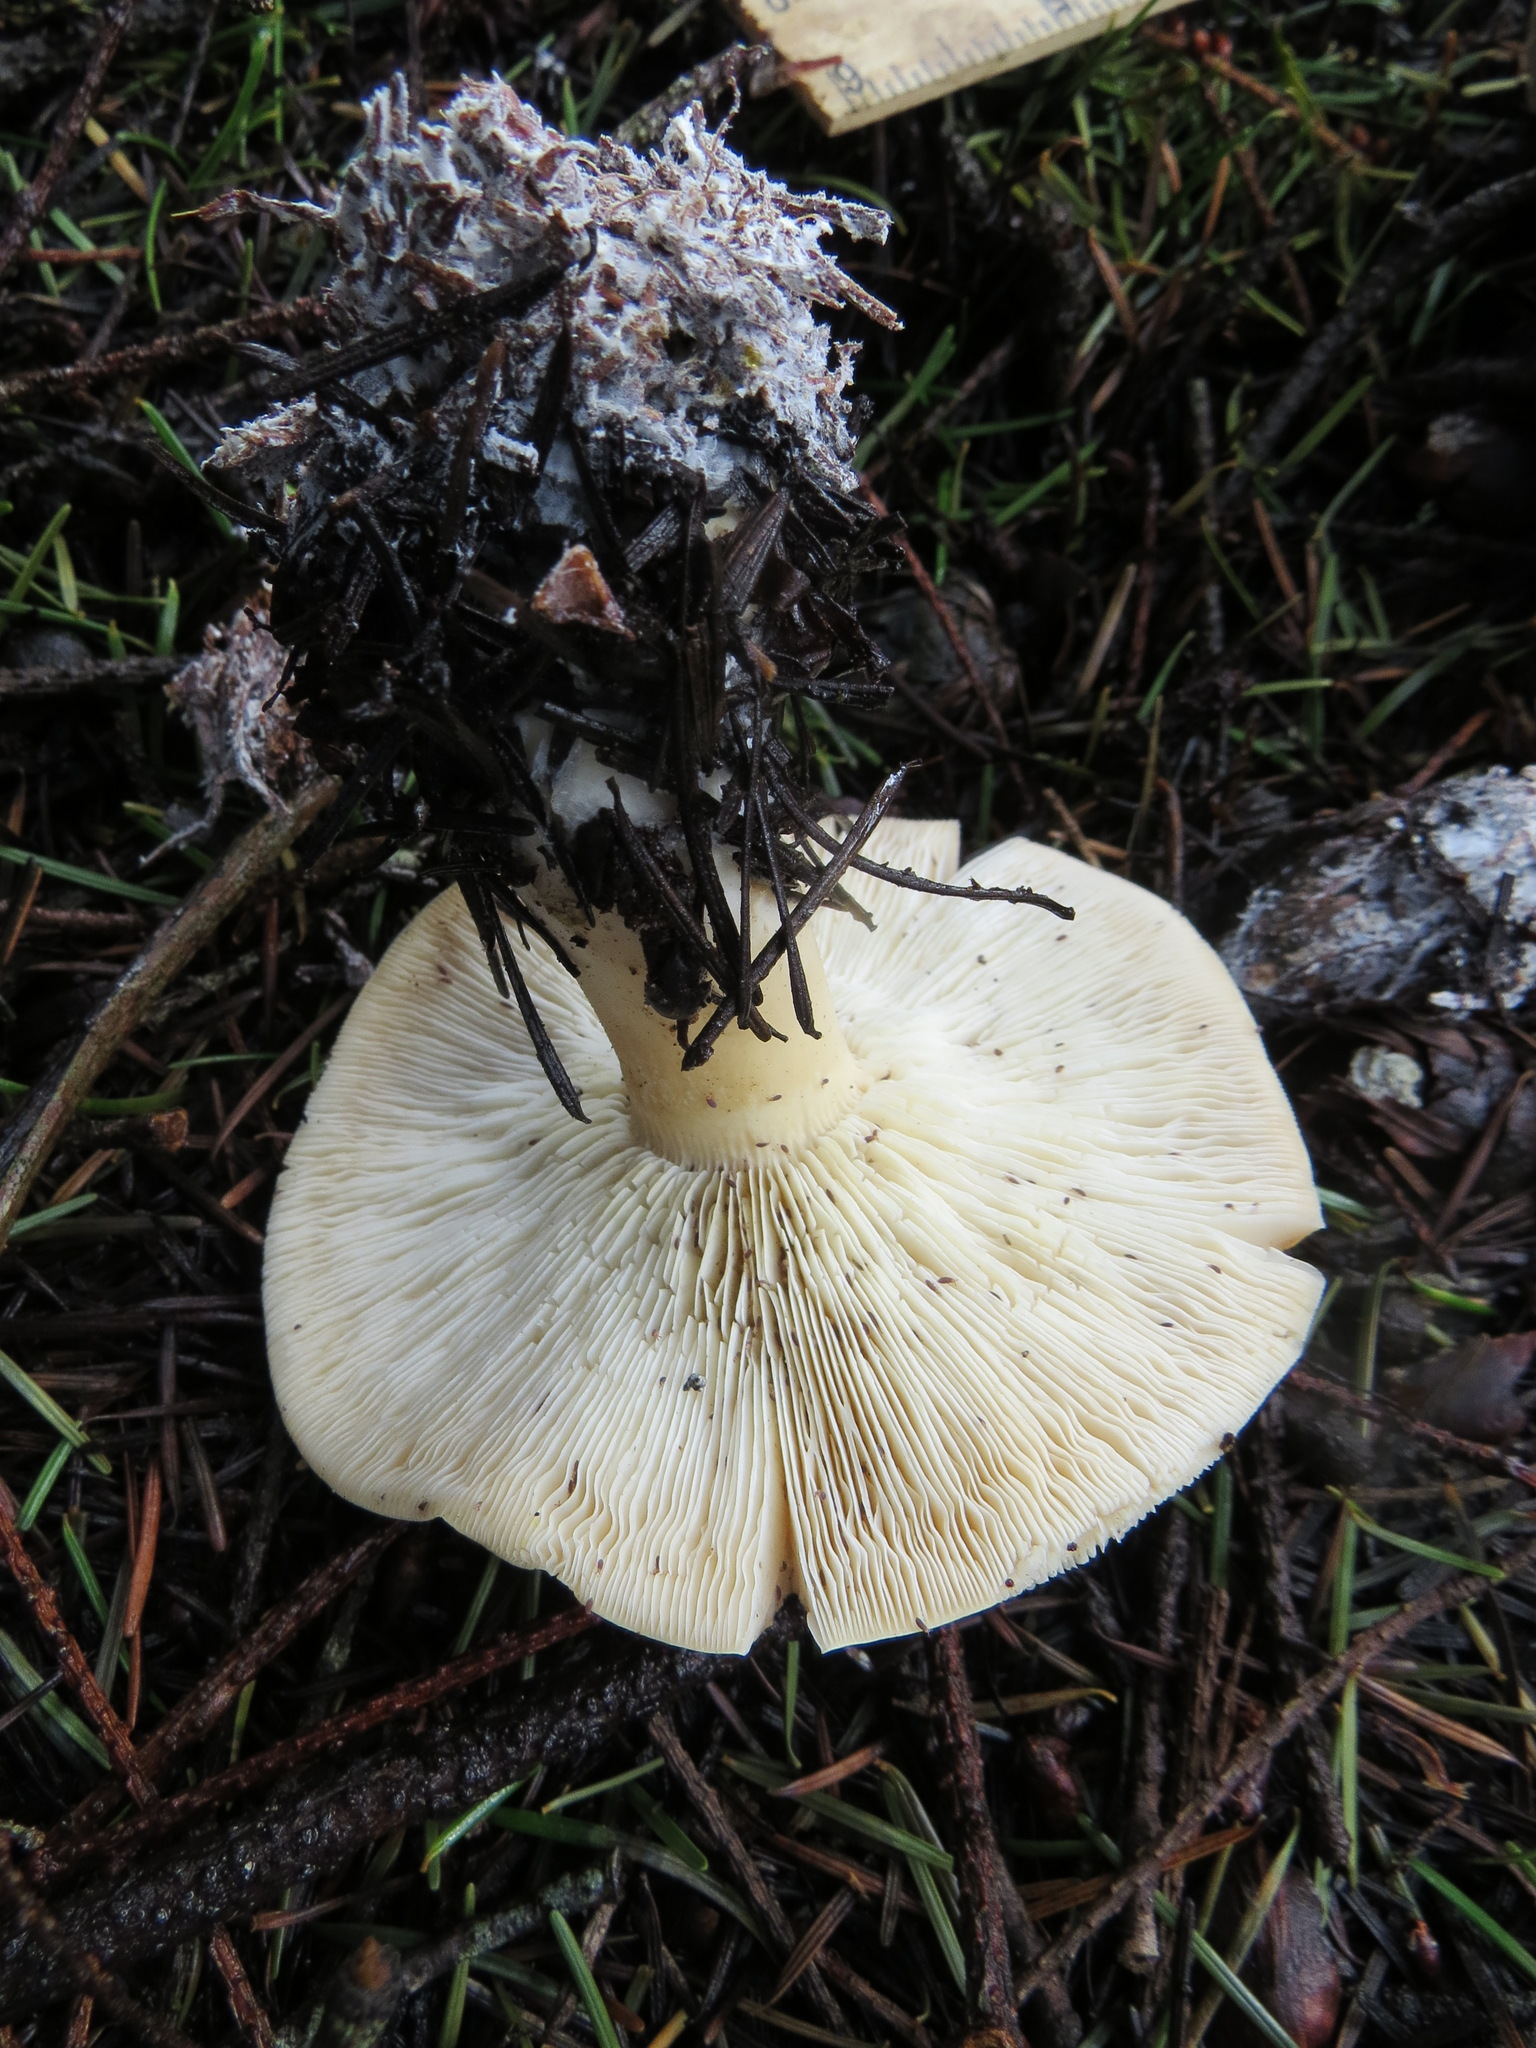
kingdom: Fungi
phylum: Basidiomycota
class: Agaricomycetes
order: Agaricales
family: Tricholomataceae
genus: Leucopaxillus
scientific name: Leucopaxillus gentianeus
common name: Bitter funnel
